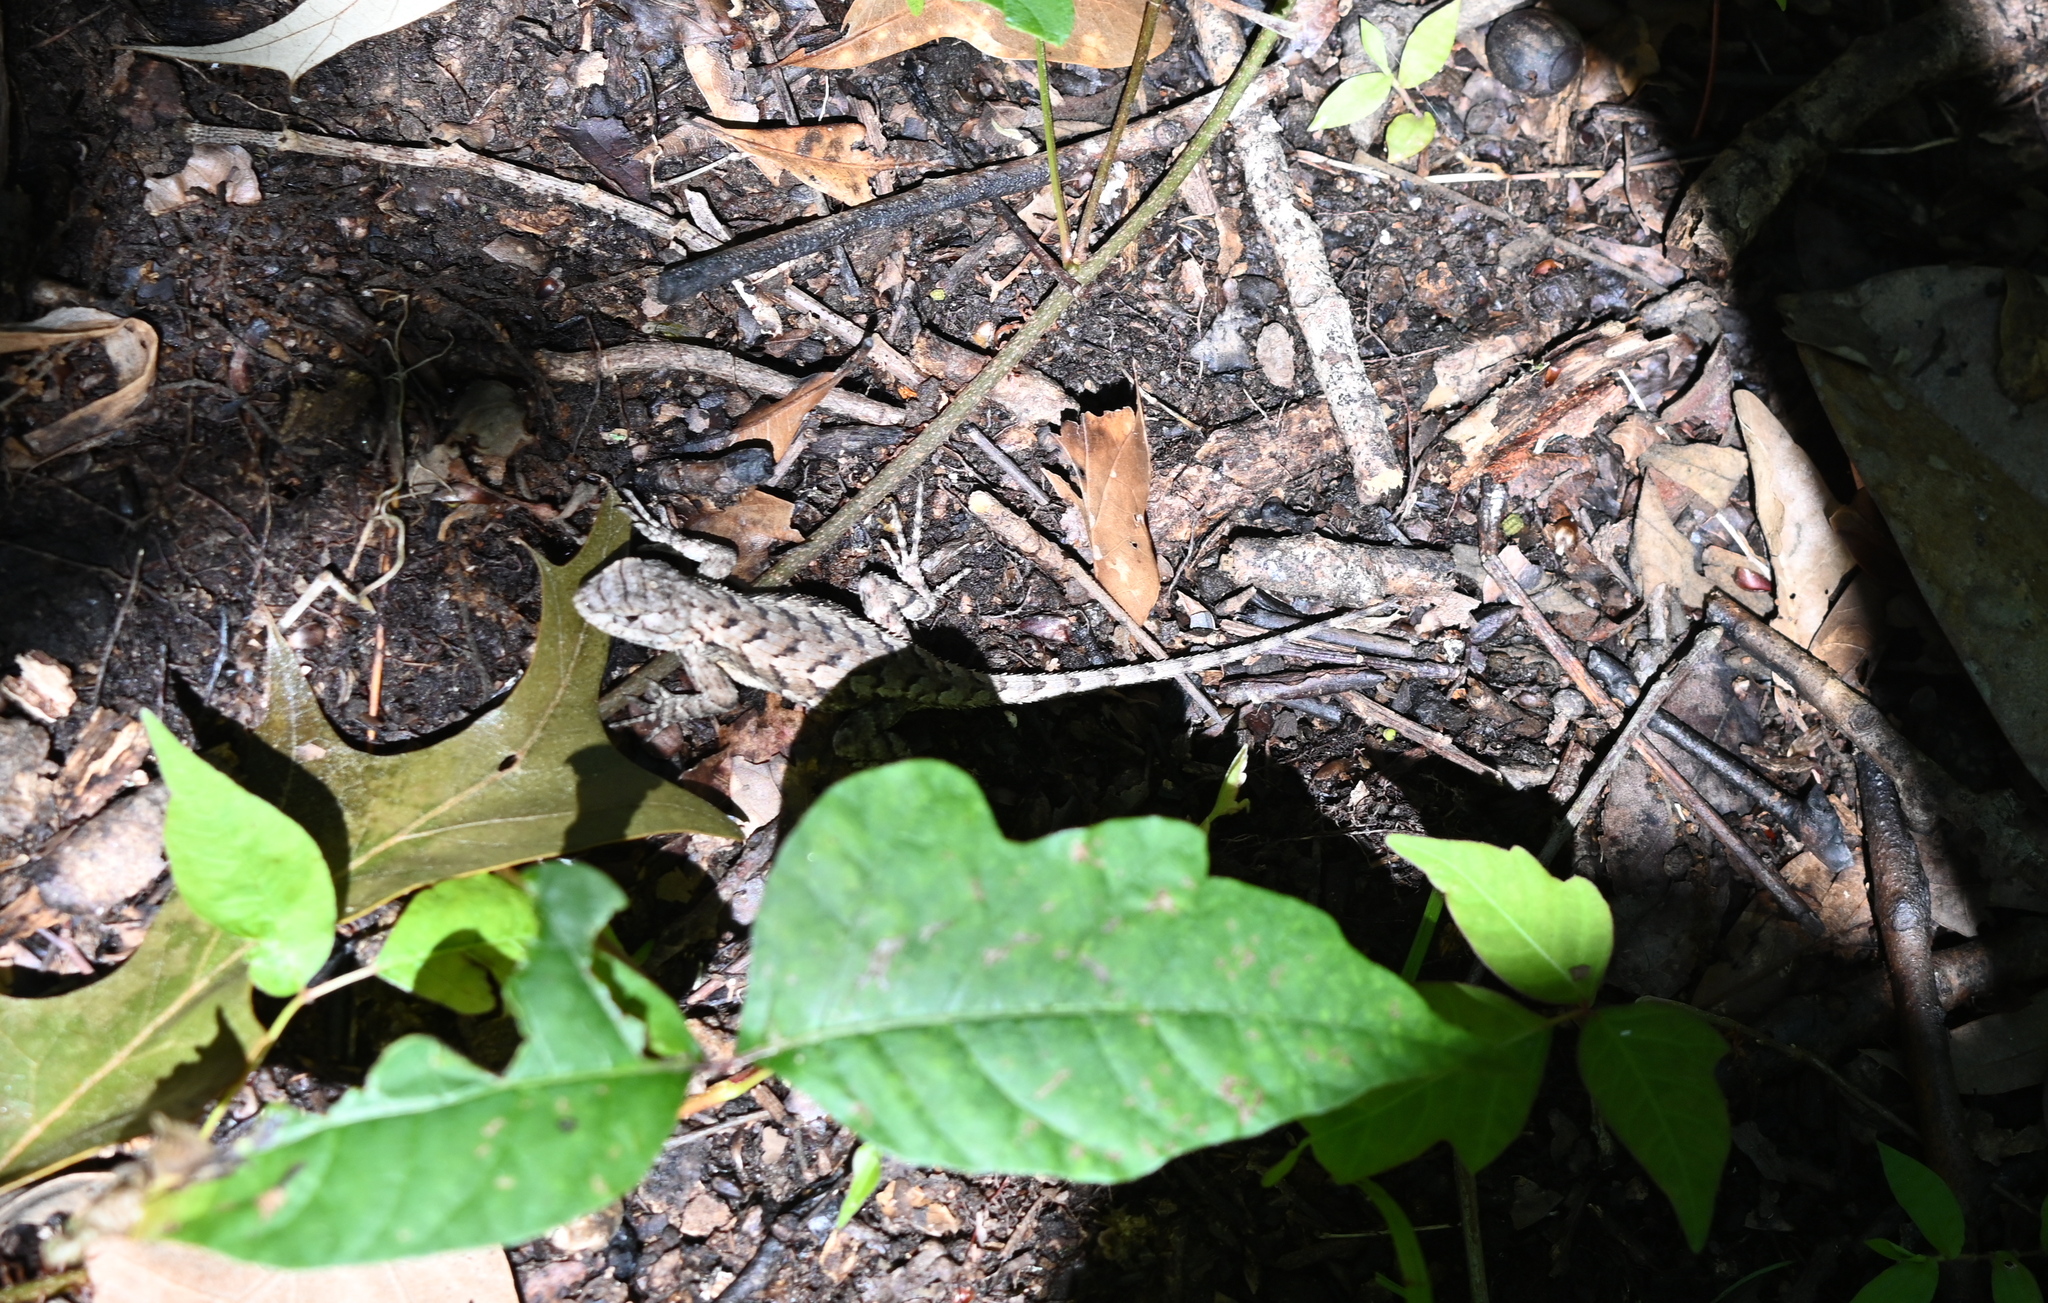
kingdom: Animalia
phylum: Chordata
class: Squamata
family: Phrynosomatidae
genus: Sceloporus
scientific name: Sceloporus undulatus
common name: Eastern fence lizard
